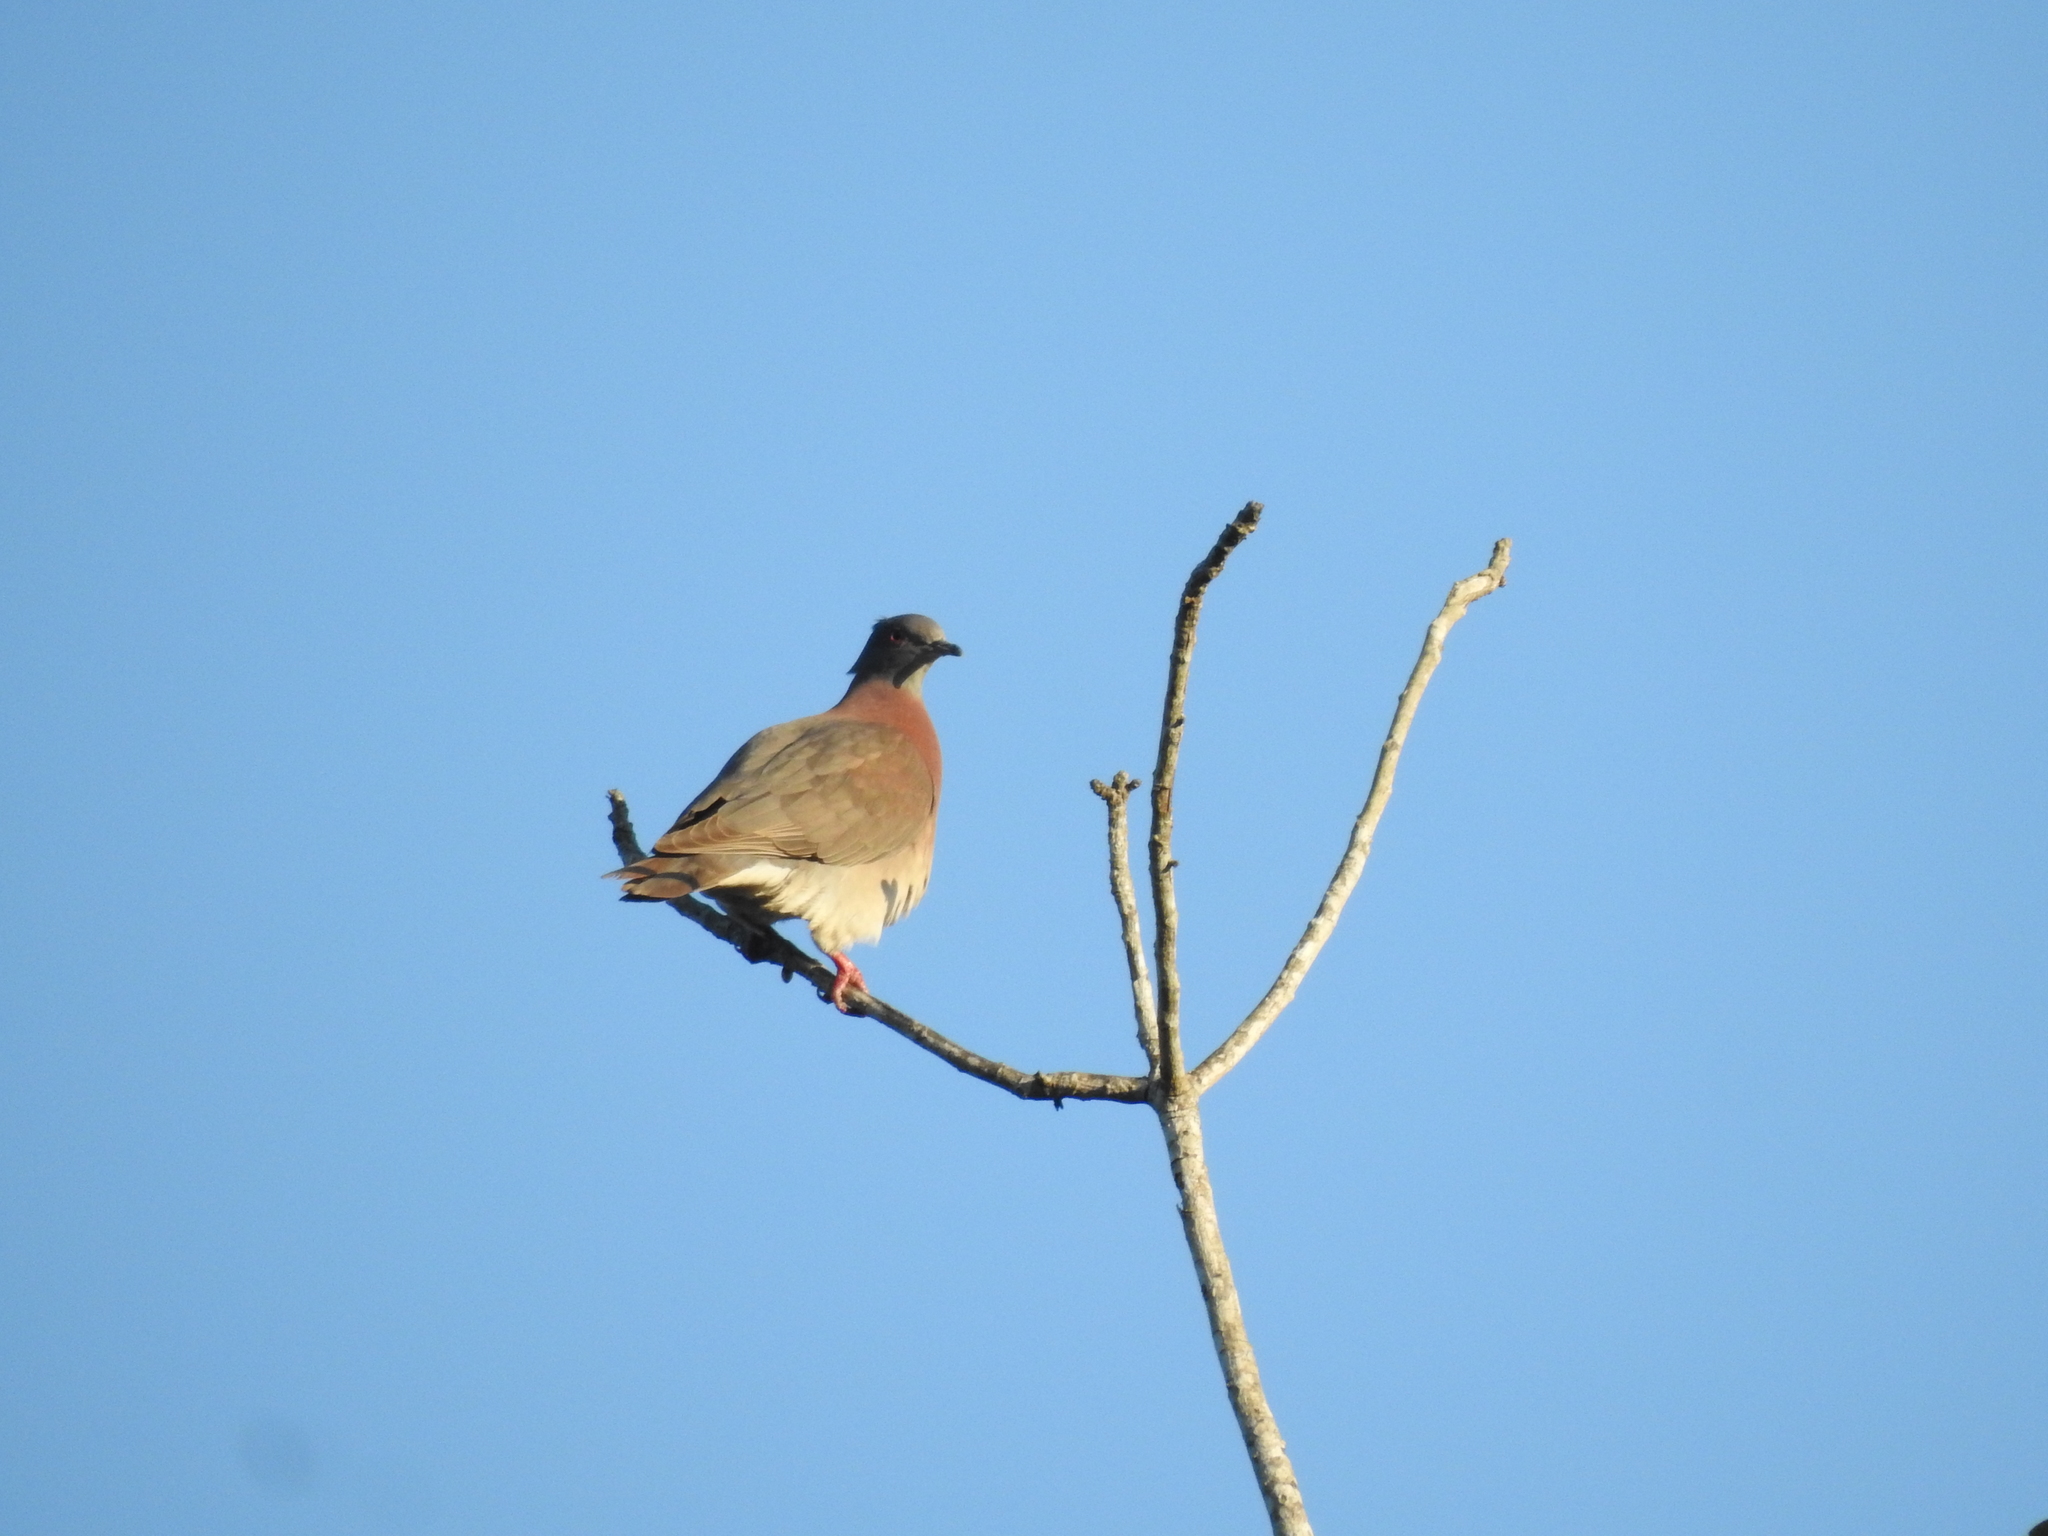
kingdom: Animalia
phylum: Chordata
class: Aves
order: Columbiformes
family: Columbidae
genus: Patagioenas
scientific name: Patagioenas cayennensis
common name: Pale-vented pigeon
